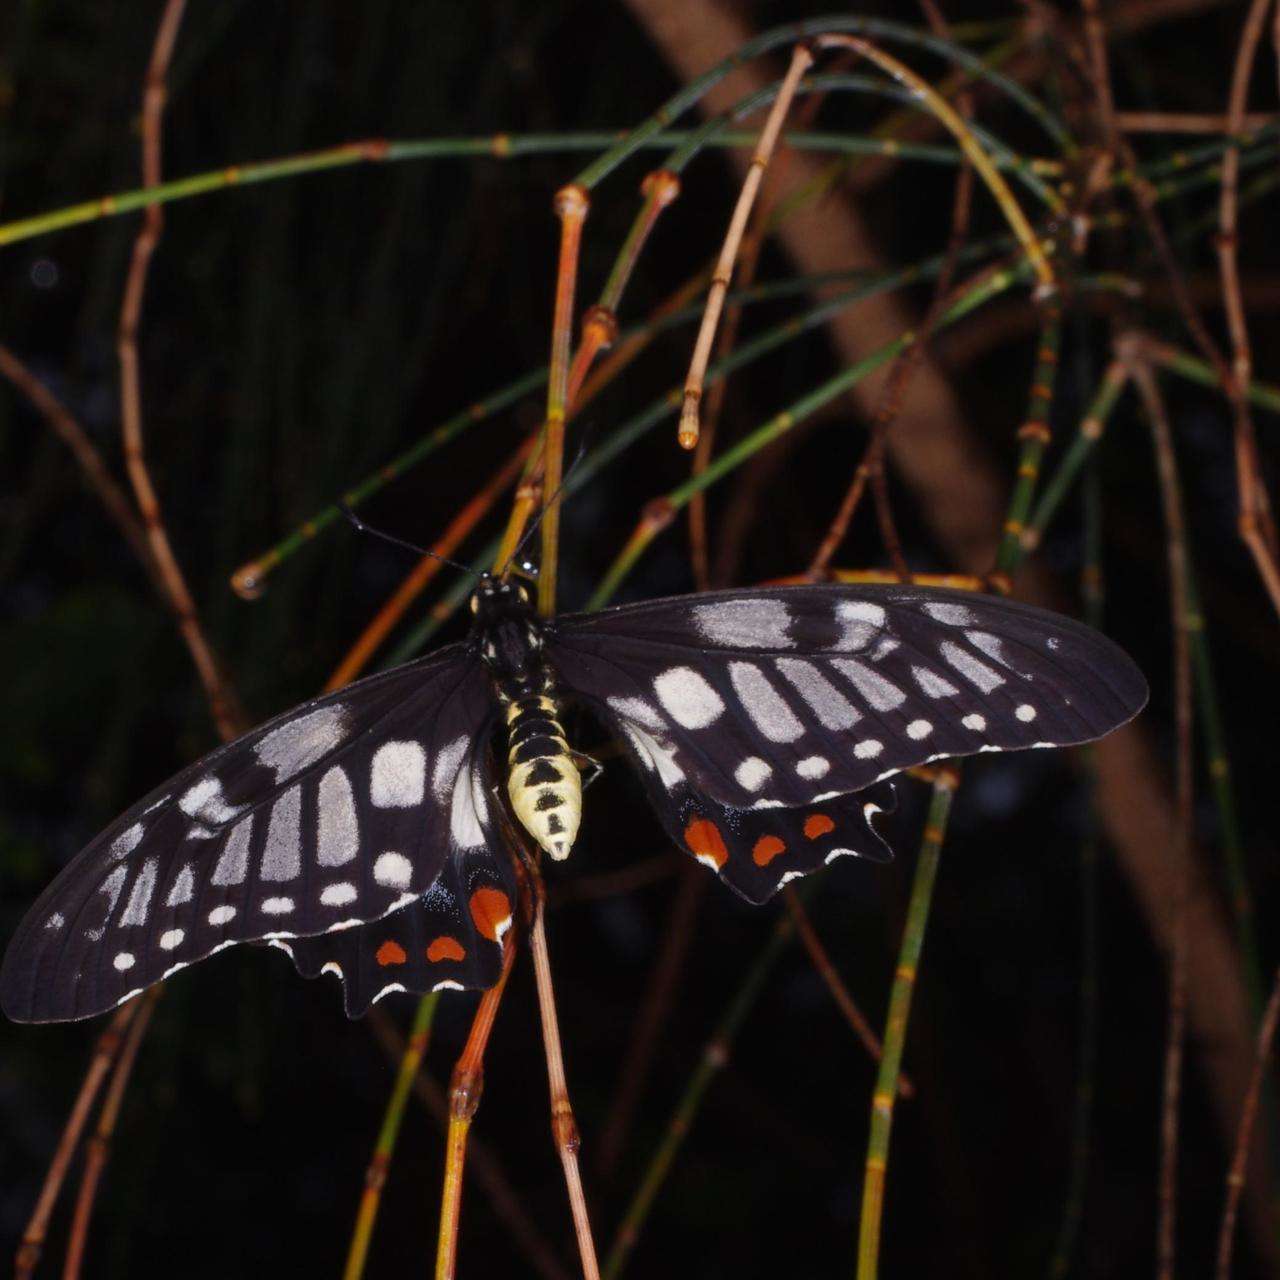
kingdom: Animalia
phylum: Arthropoda
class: Insecta
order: Lepidoptera
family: Papilionidae
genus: Papilio
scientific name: Papilio anactus
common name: Dingy swallowtail
